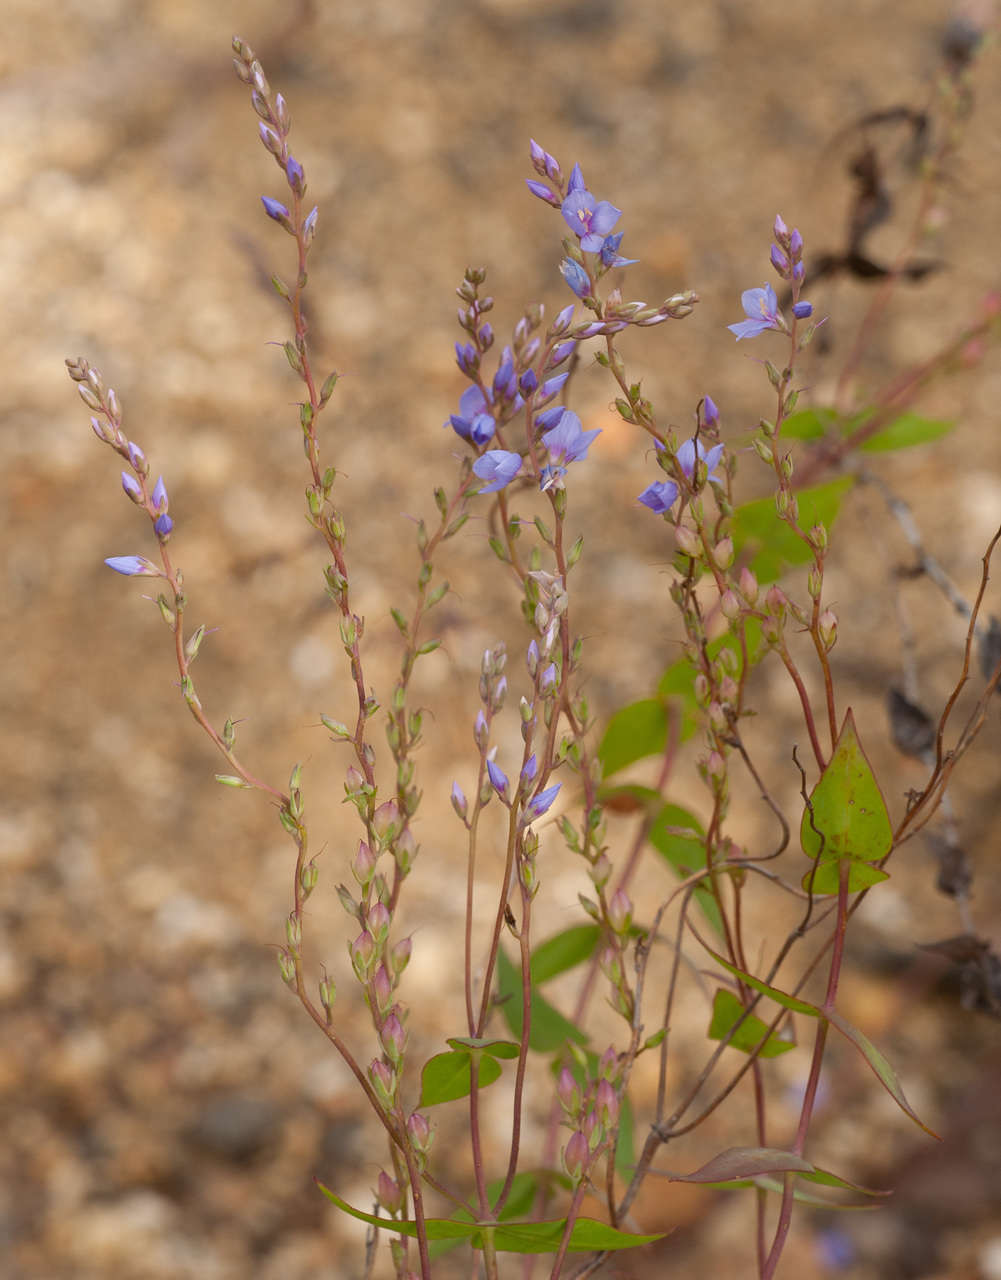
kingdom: Plantae
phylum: Tracheophyta
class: Magnoliopsida
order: Lamiales
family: Plantaginaceae
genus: Veronica
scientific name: Veronica perfoliata
